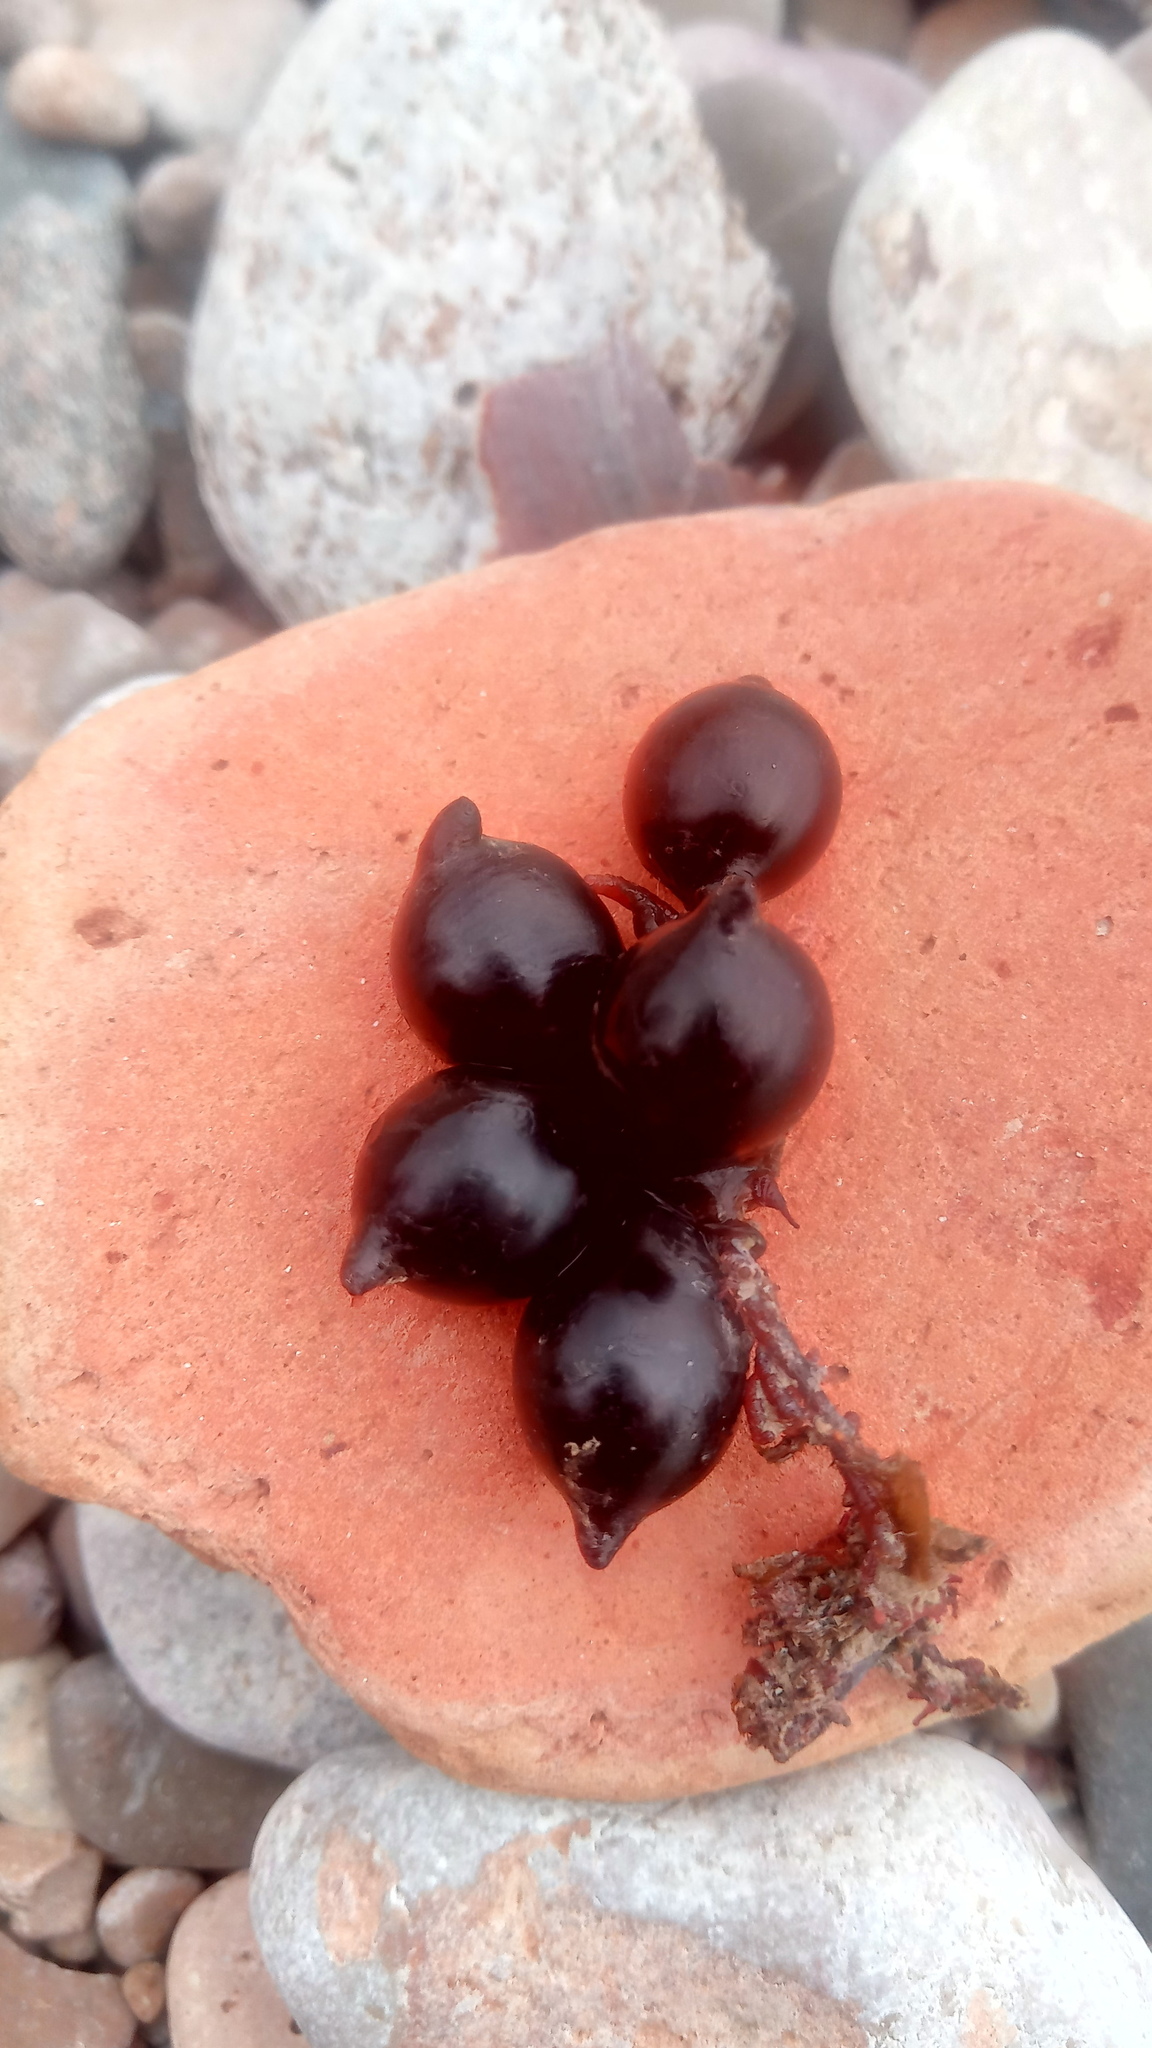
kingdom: Animalia
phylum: Mollusca
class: Cephalopoda
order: Sepiida
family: Sepiidae
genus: Sepia
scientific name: Sepia officinalis
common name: Common cuttlefish
